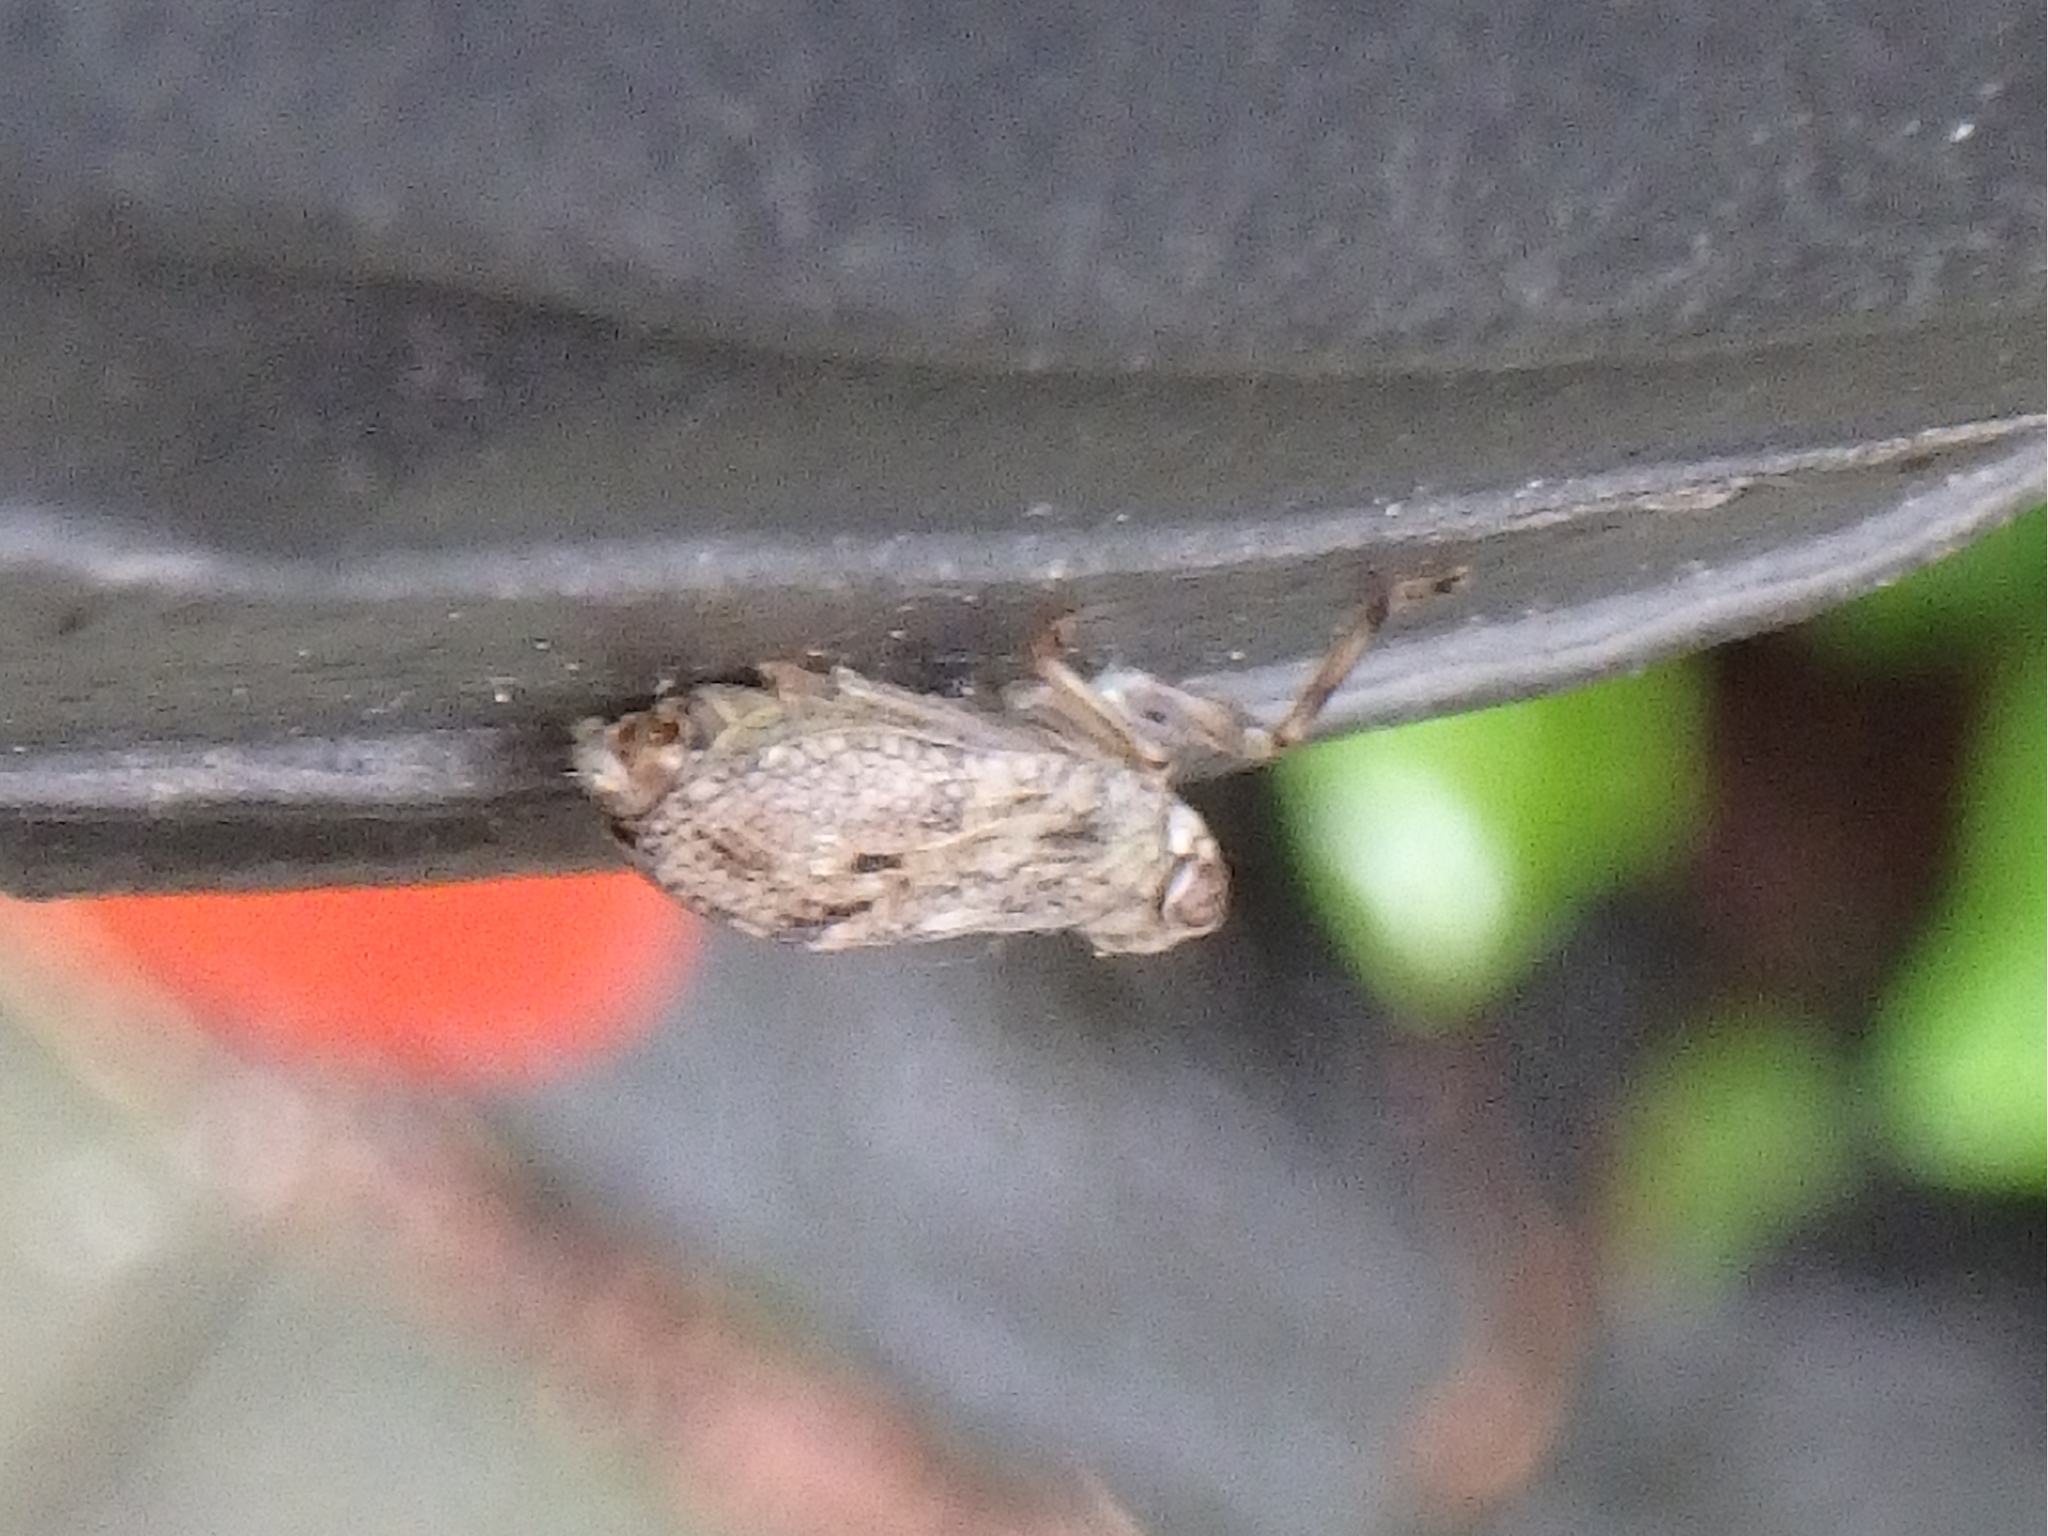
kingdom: Animalia
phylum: Arthropoda
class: Insecta
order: Hemiptera
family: Issidae
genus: Issus
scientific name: Issus coleoptratus
